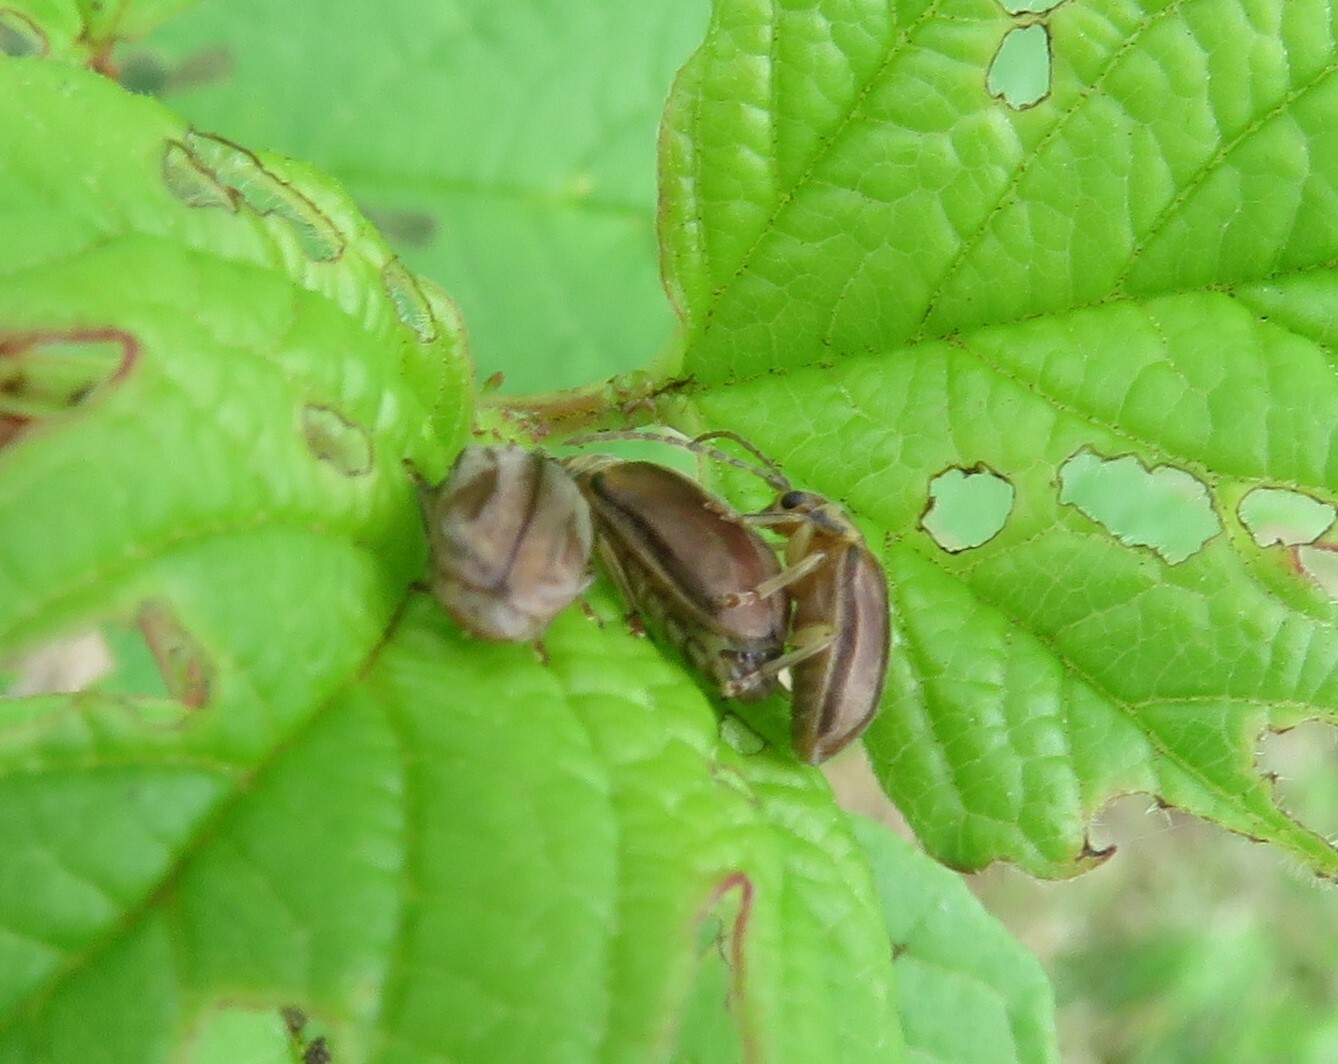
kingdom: Animalia
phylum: Arthropoda
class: Insecta
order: Coleoptera
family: Chrysomelidae
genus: Pyrrhalta
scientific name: Pyrrhalta viburni
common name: Guelder-rose leaf beetle
